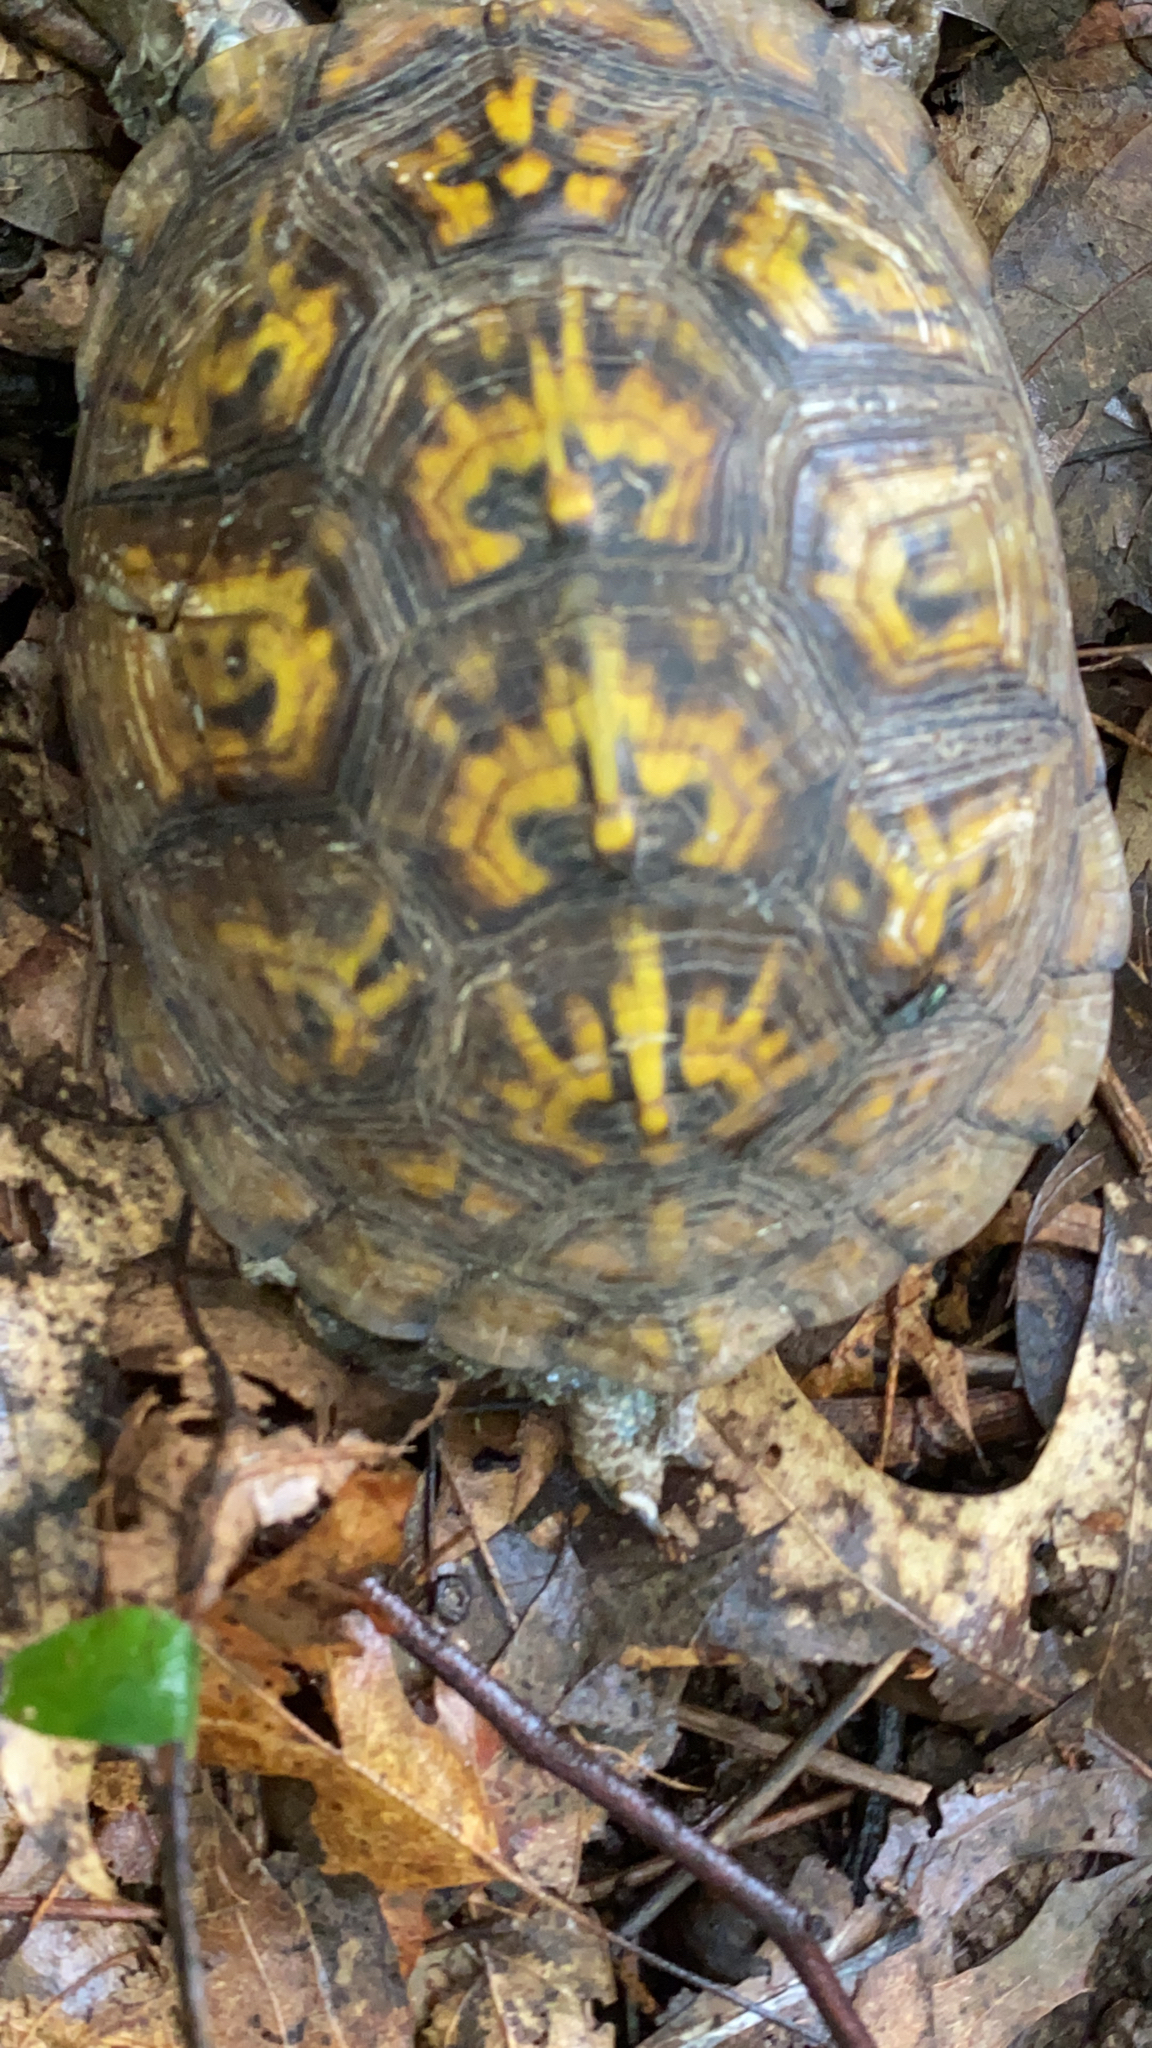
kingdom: Animalia
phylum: Chordata
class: Testudines
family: Emydidae
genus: Terrapene
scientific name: Terrapene carolina
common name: Common box turtle
